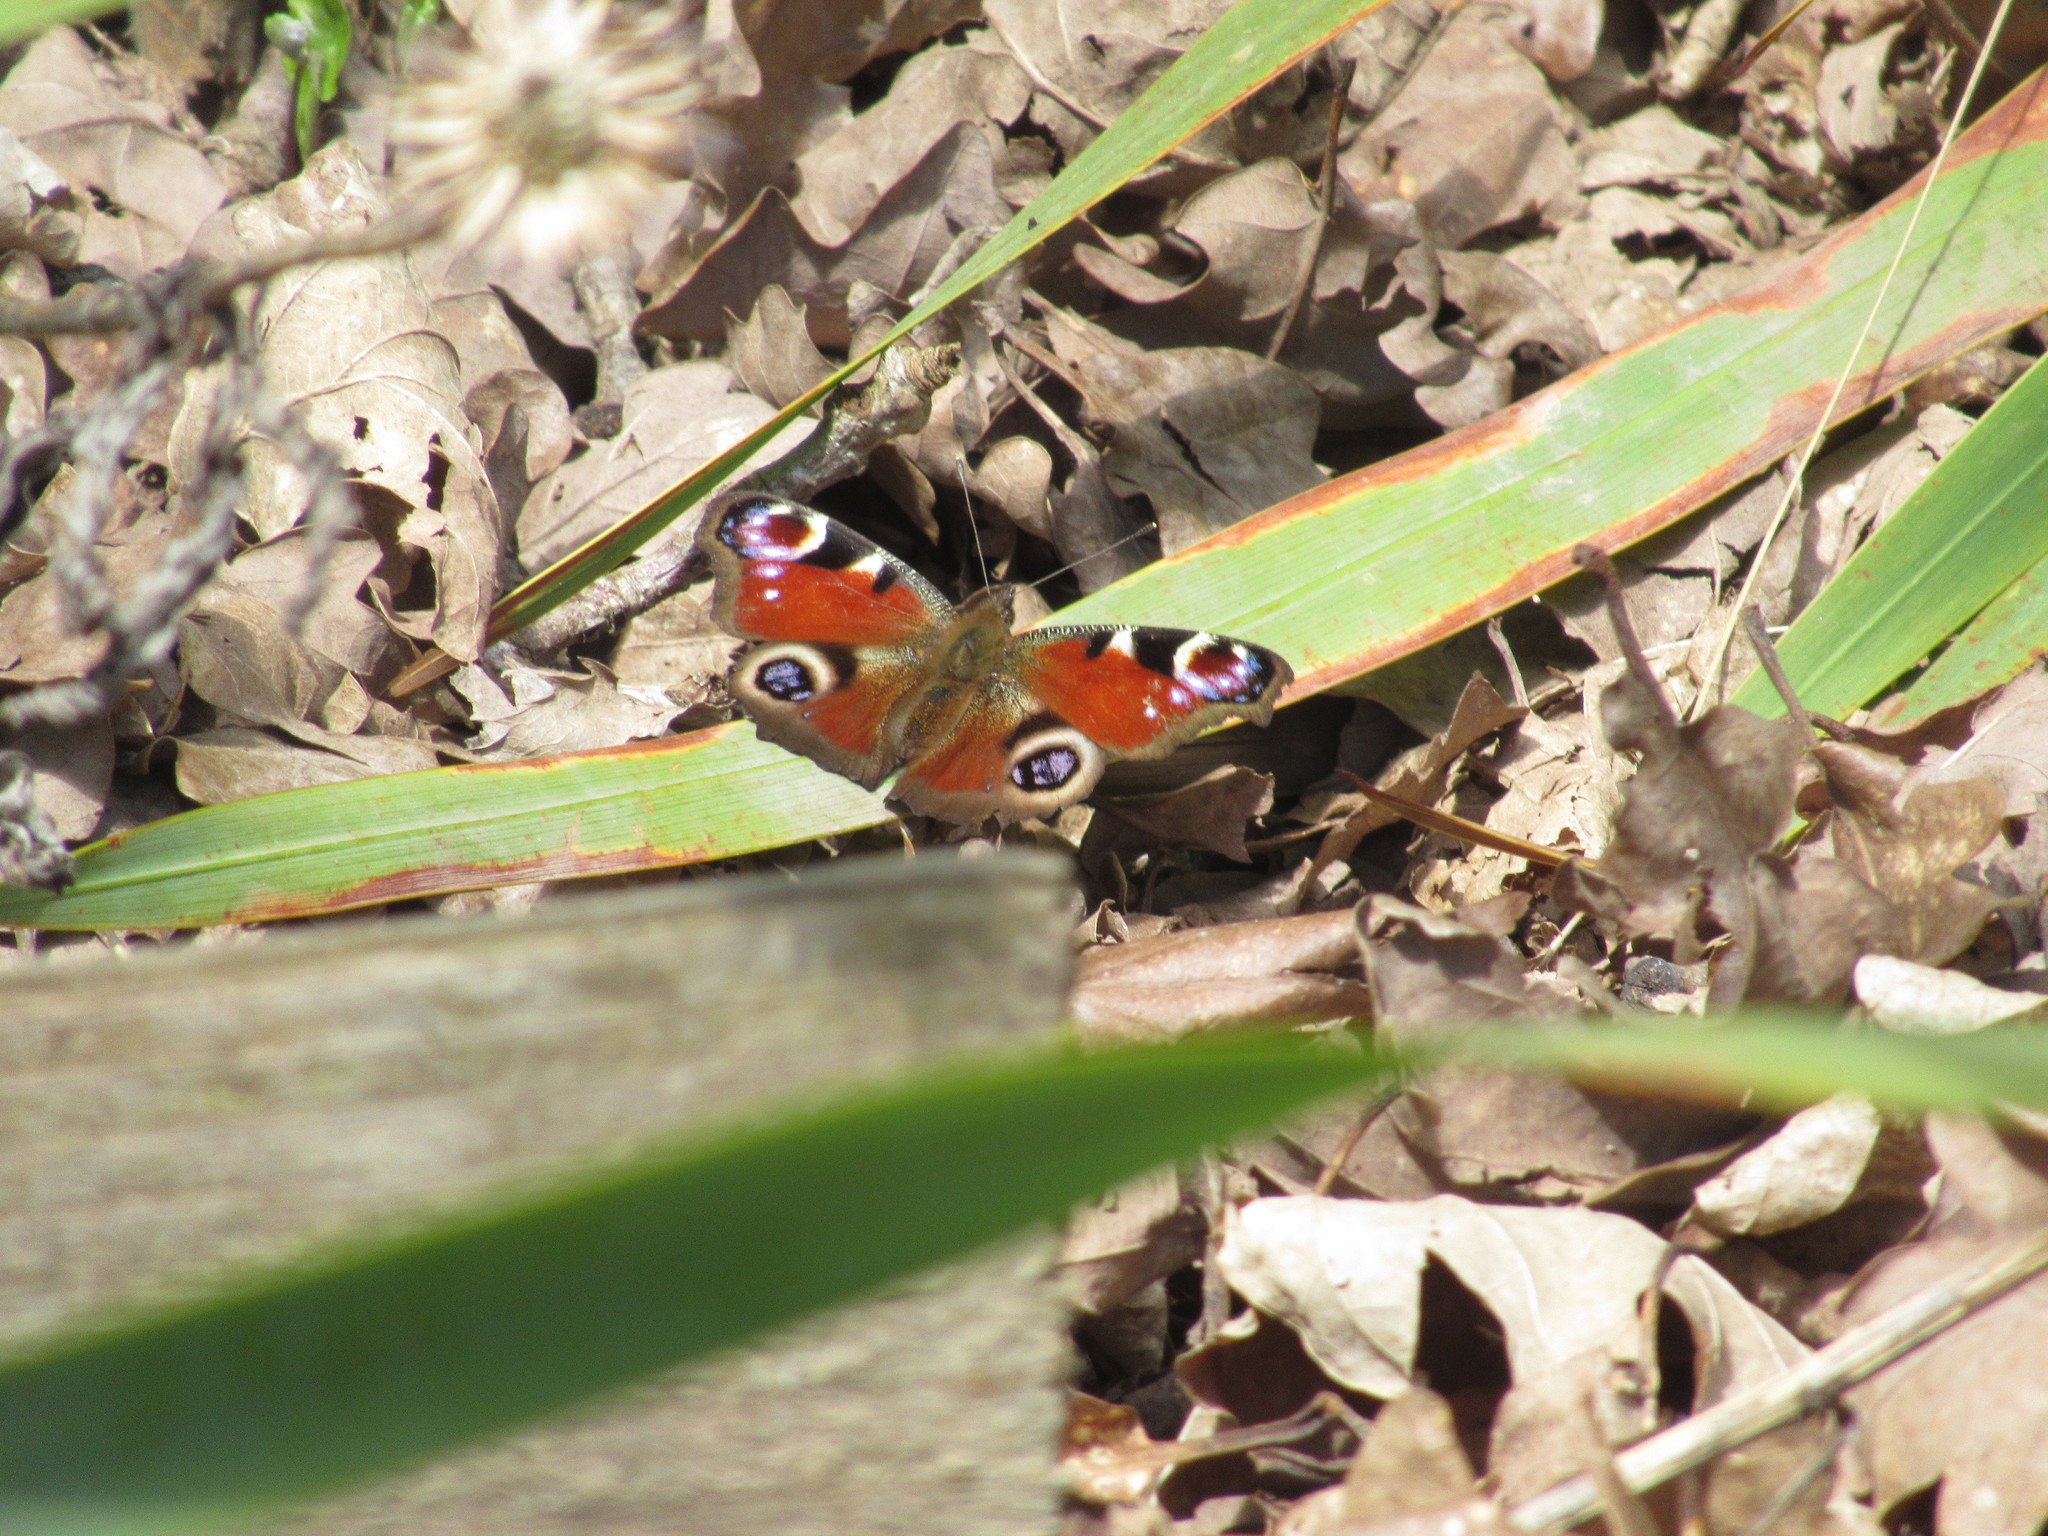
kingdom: Animalia
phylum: Arthropoda
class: Insecta
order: Lepidoptera
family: Nymphalidae
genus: Aglais
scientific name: Aglais io
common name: Peacock
